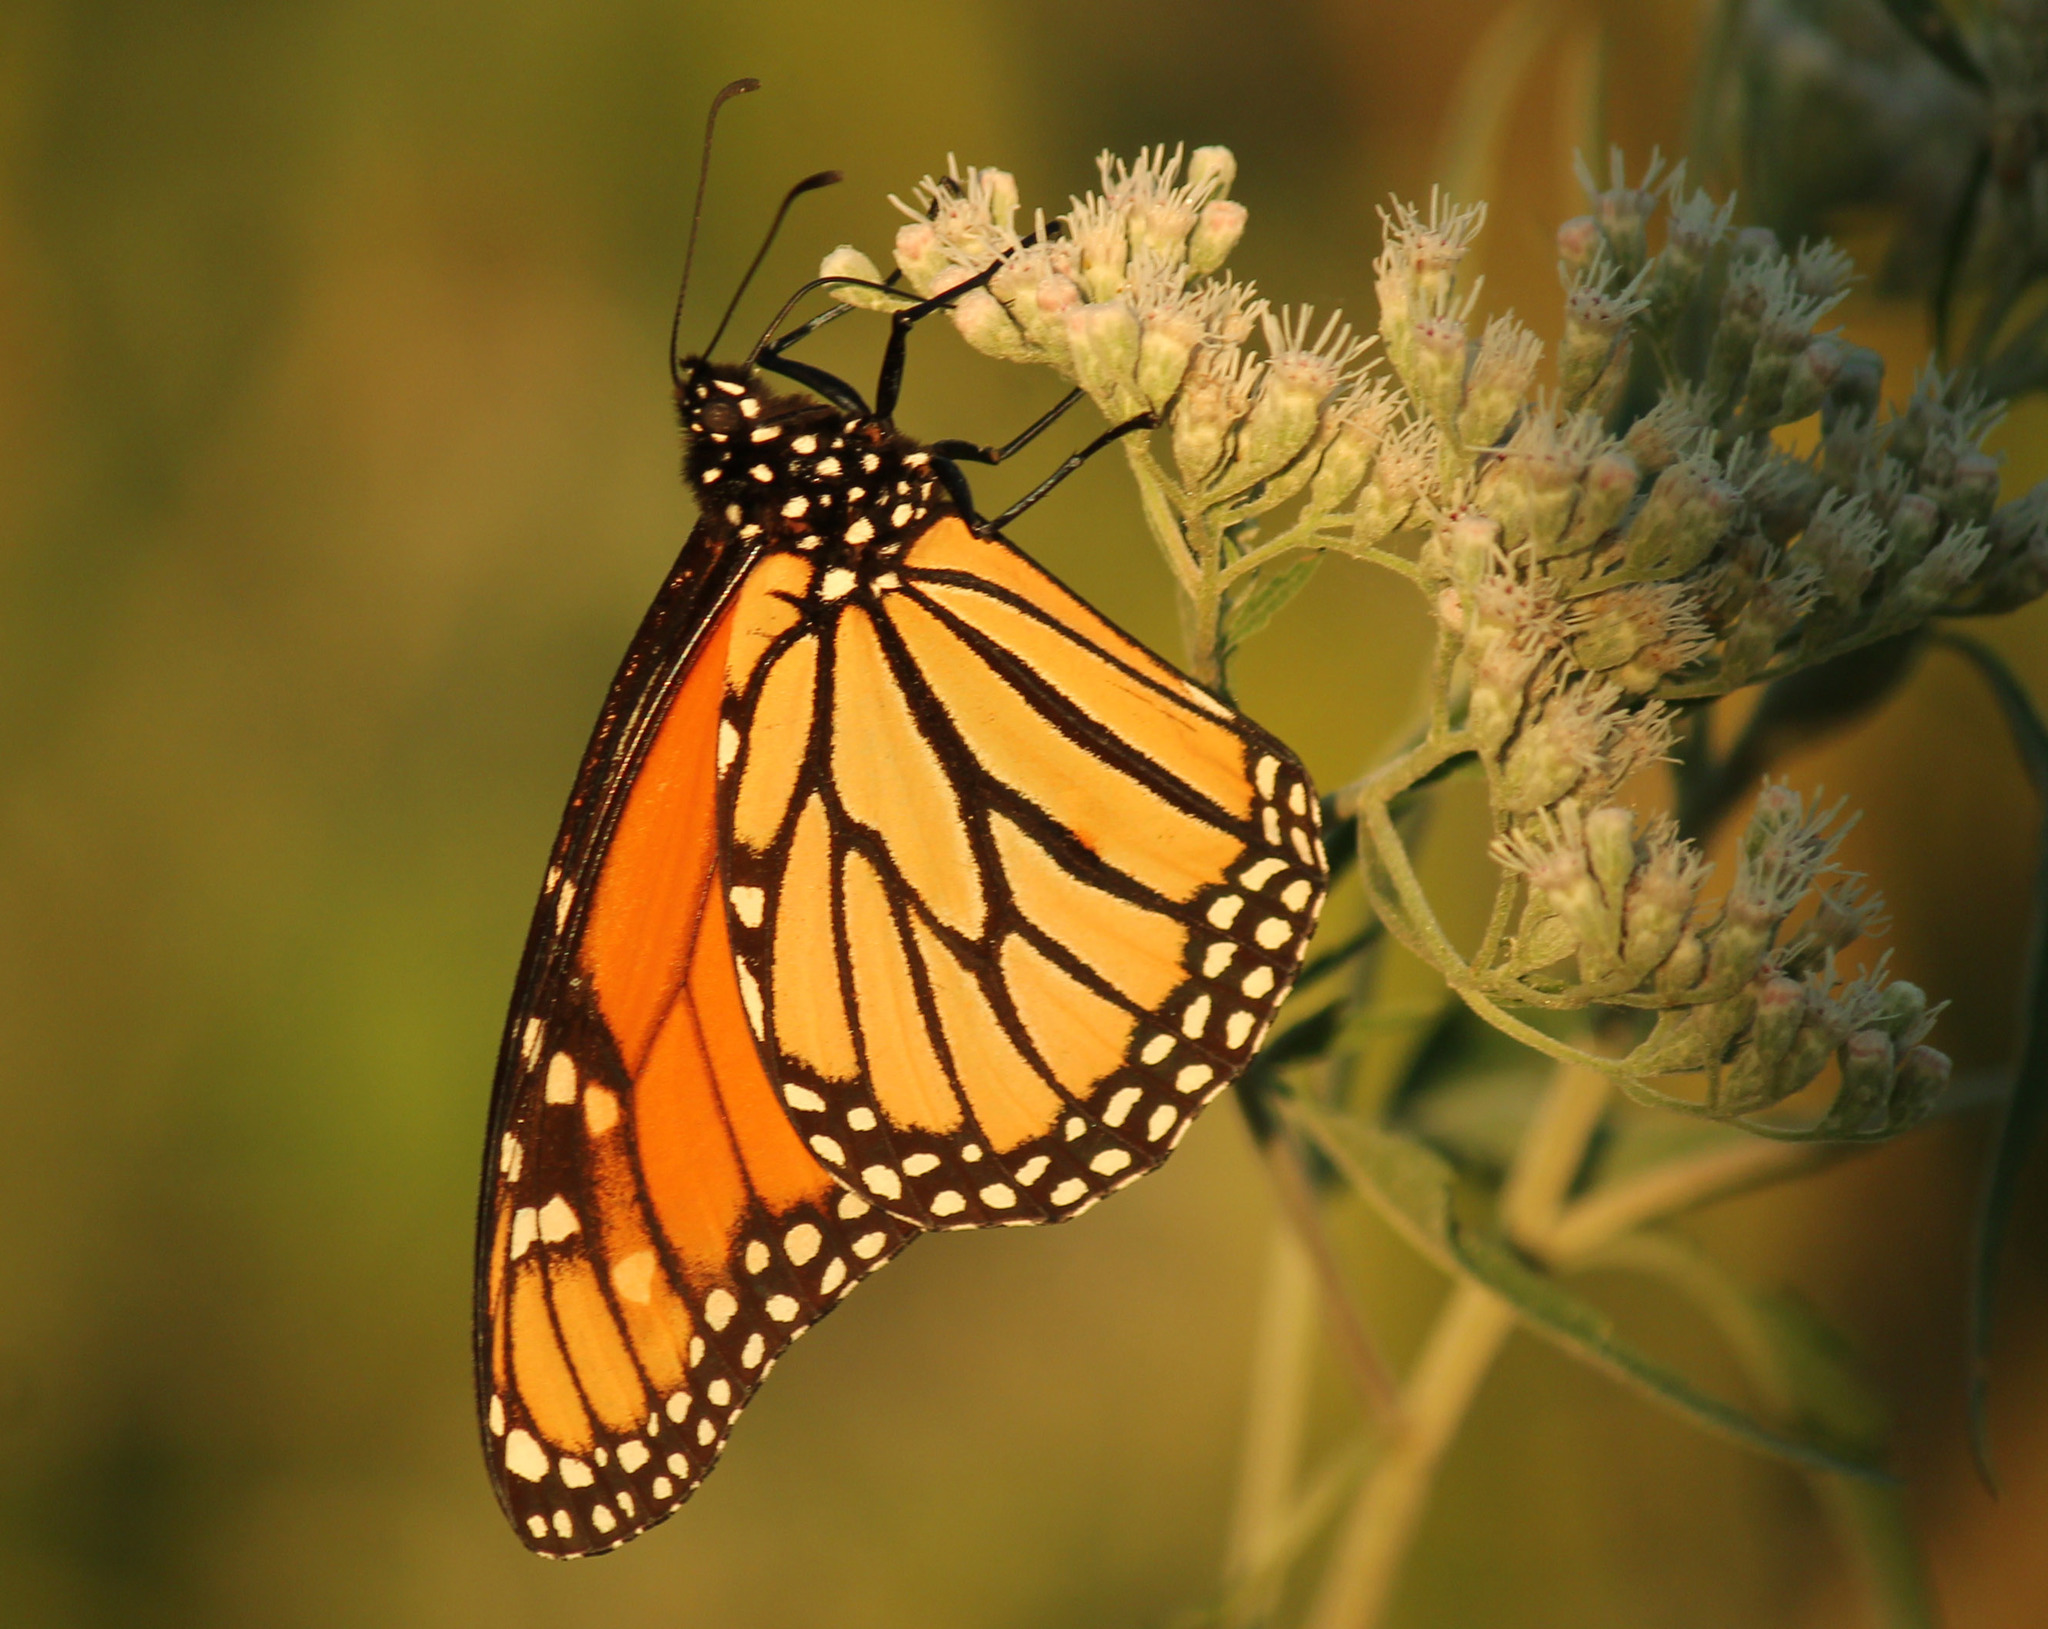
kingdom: Animalia
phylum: Arthropoda
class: Insecta
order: Lepidoptera
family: Nymphalidae
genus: Danaus
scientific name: Danaus plexippus
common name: Monarch
